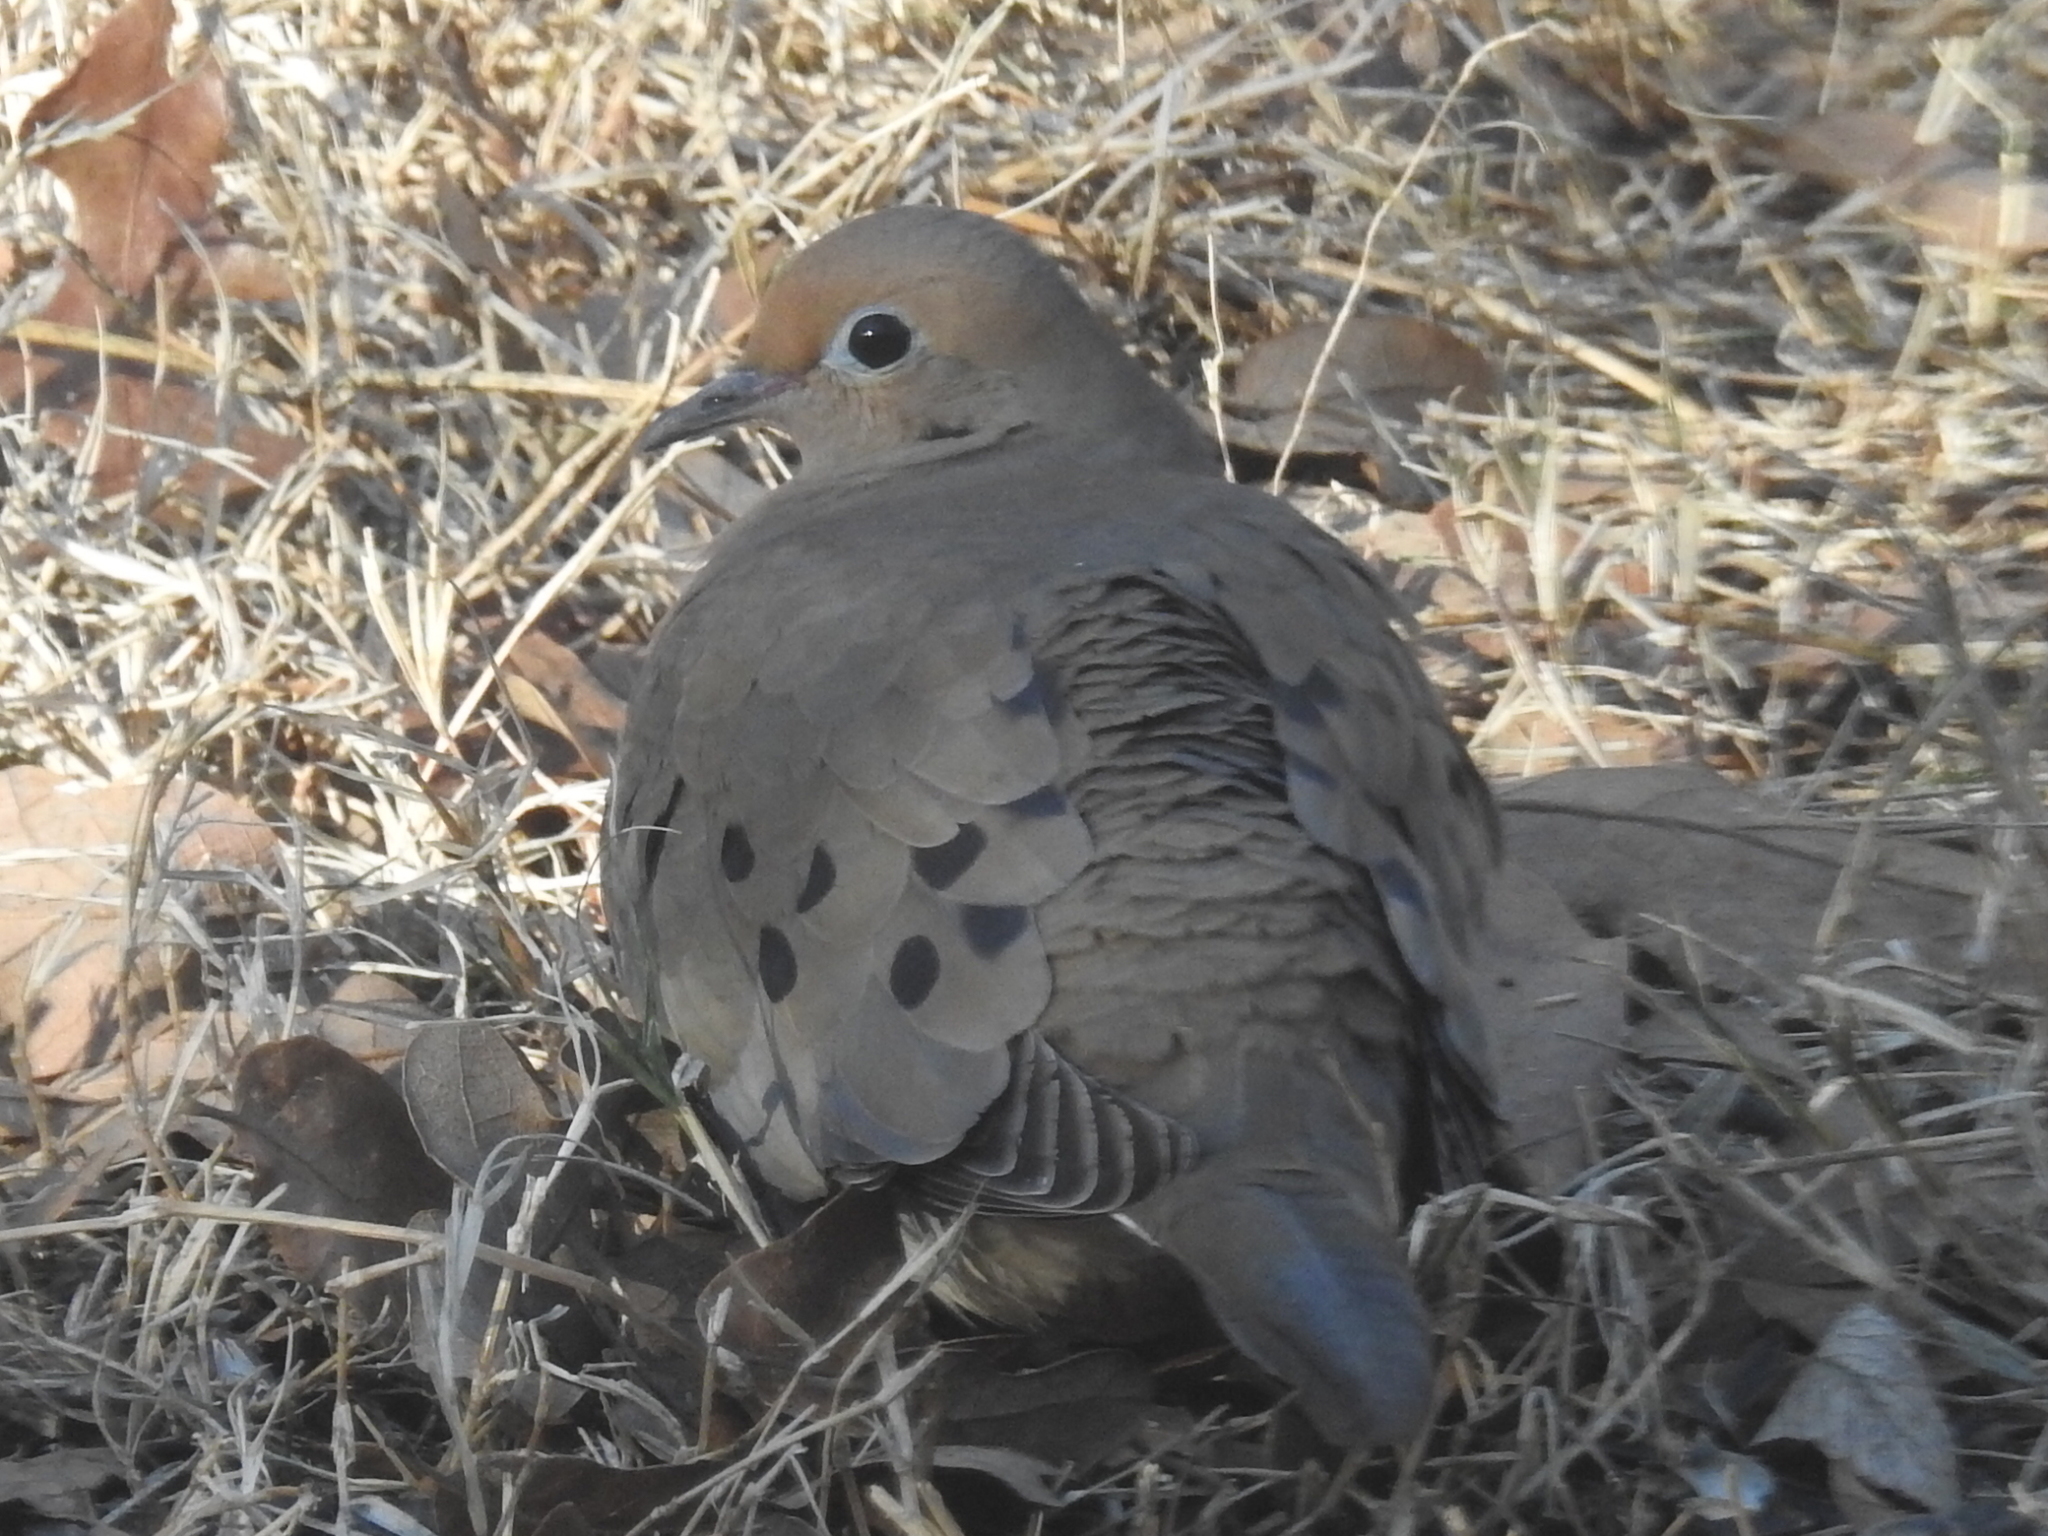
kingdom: Animalia
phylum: Chordata
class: Aves
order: Columbiformes
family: Columbidae
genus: Zenaida
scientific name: Zenaida macroura
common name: Mourning dove
